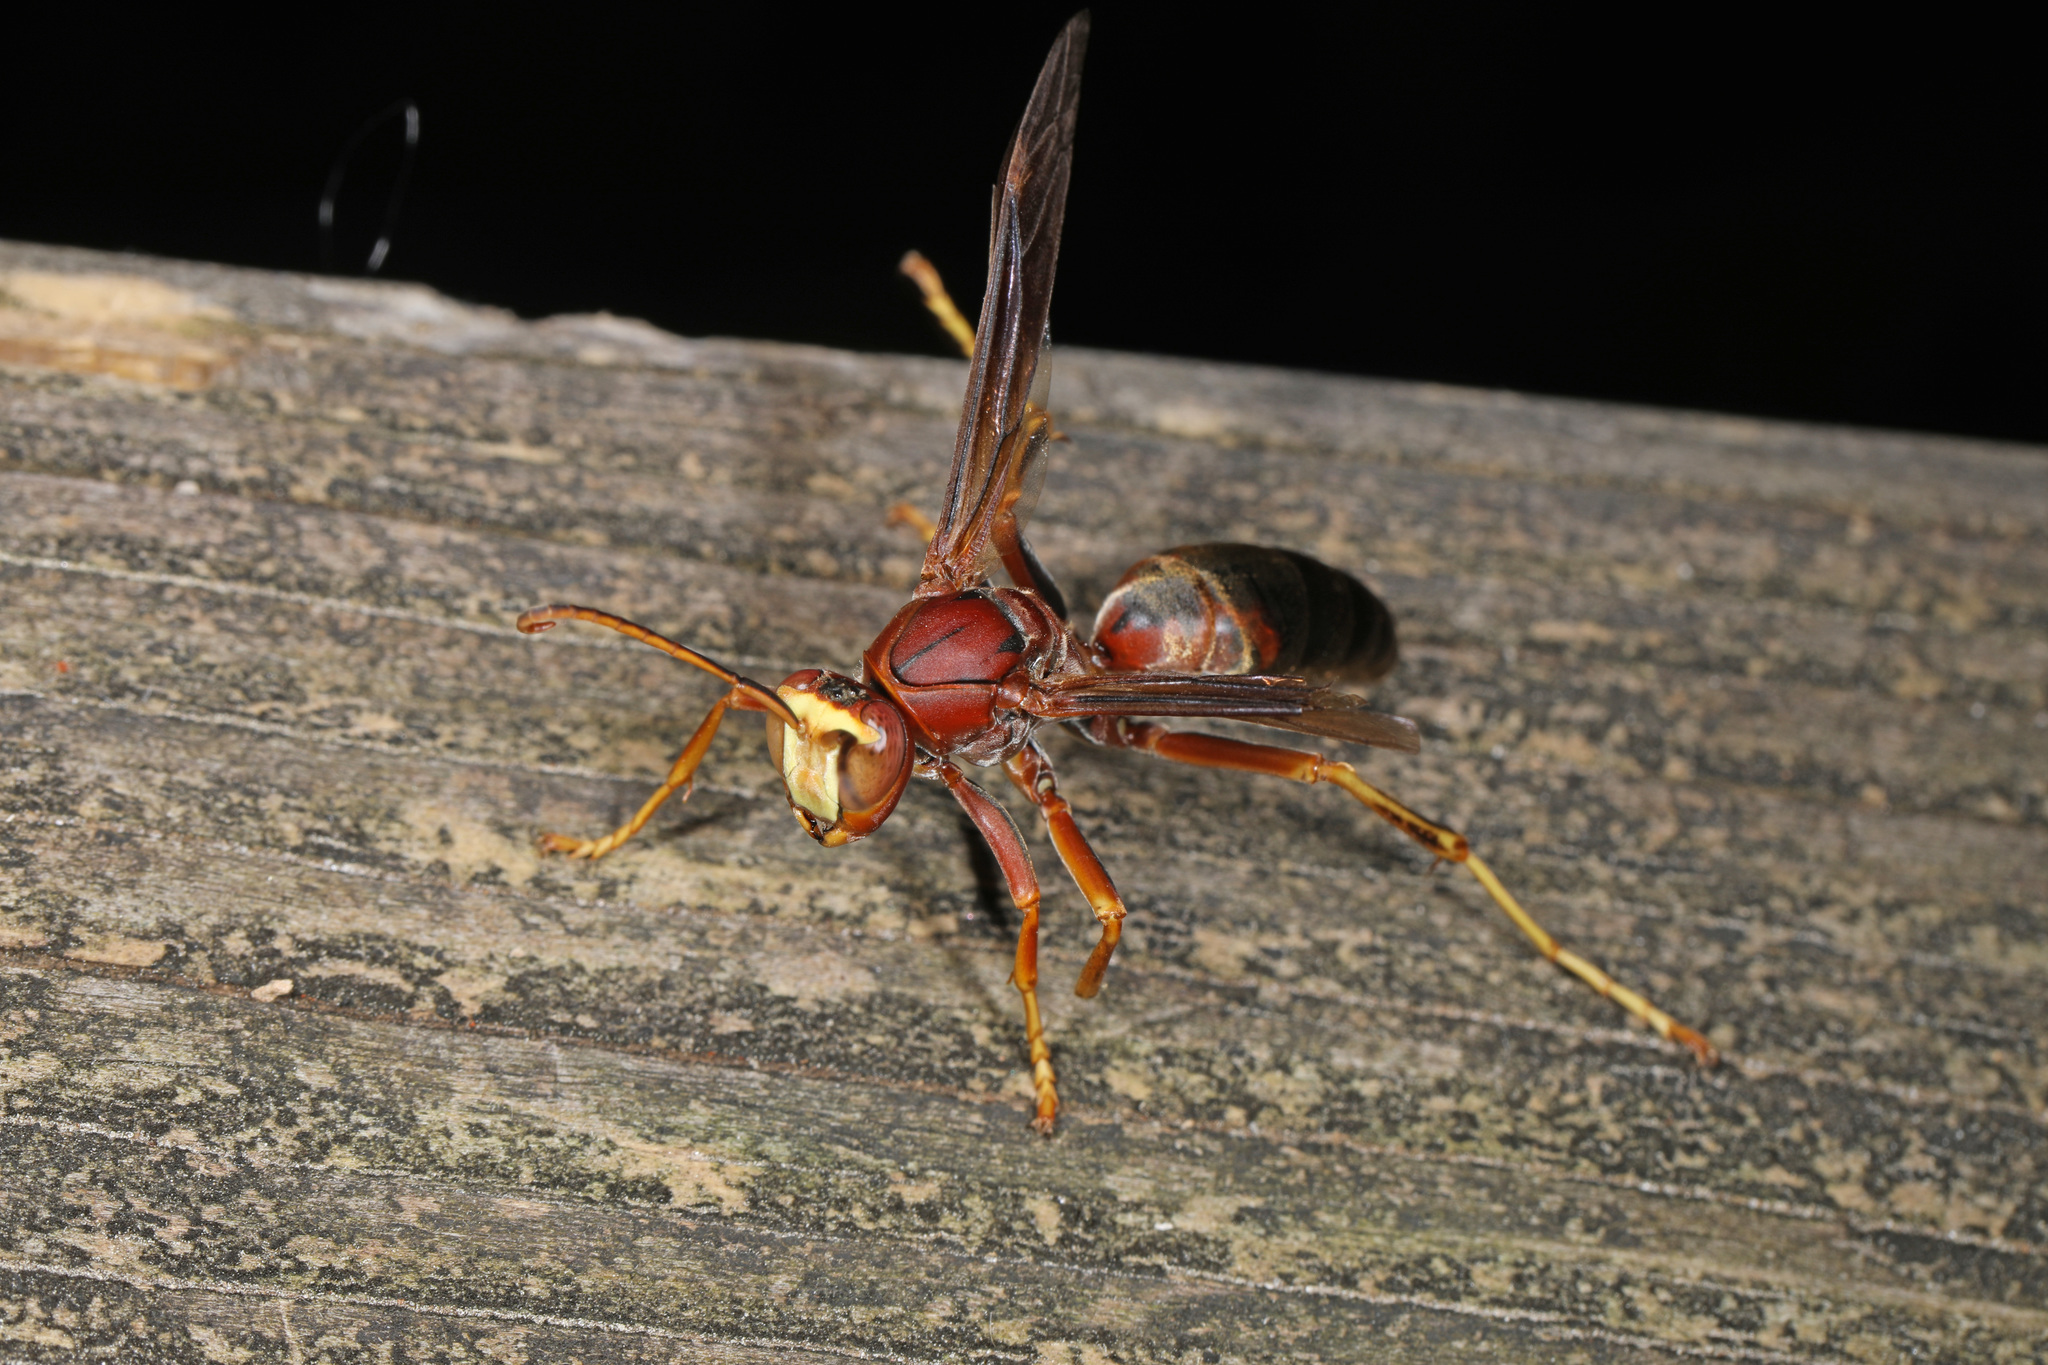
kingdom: Animalia
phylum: Arthropoda
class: Insecta
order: Hymenoptera
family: Eumenidae
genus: Polistes
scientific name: Polistes metricus
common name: Metric paper wasp
